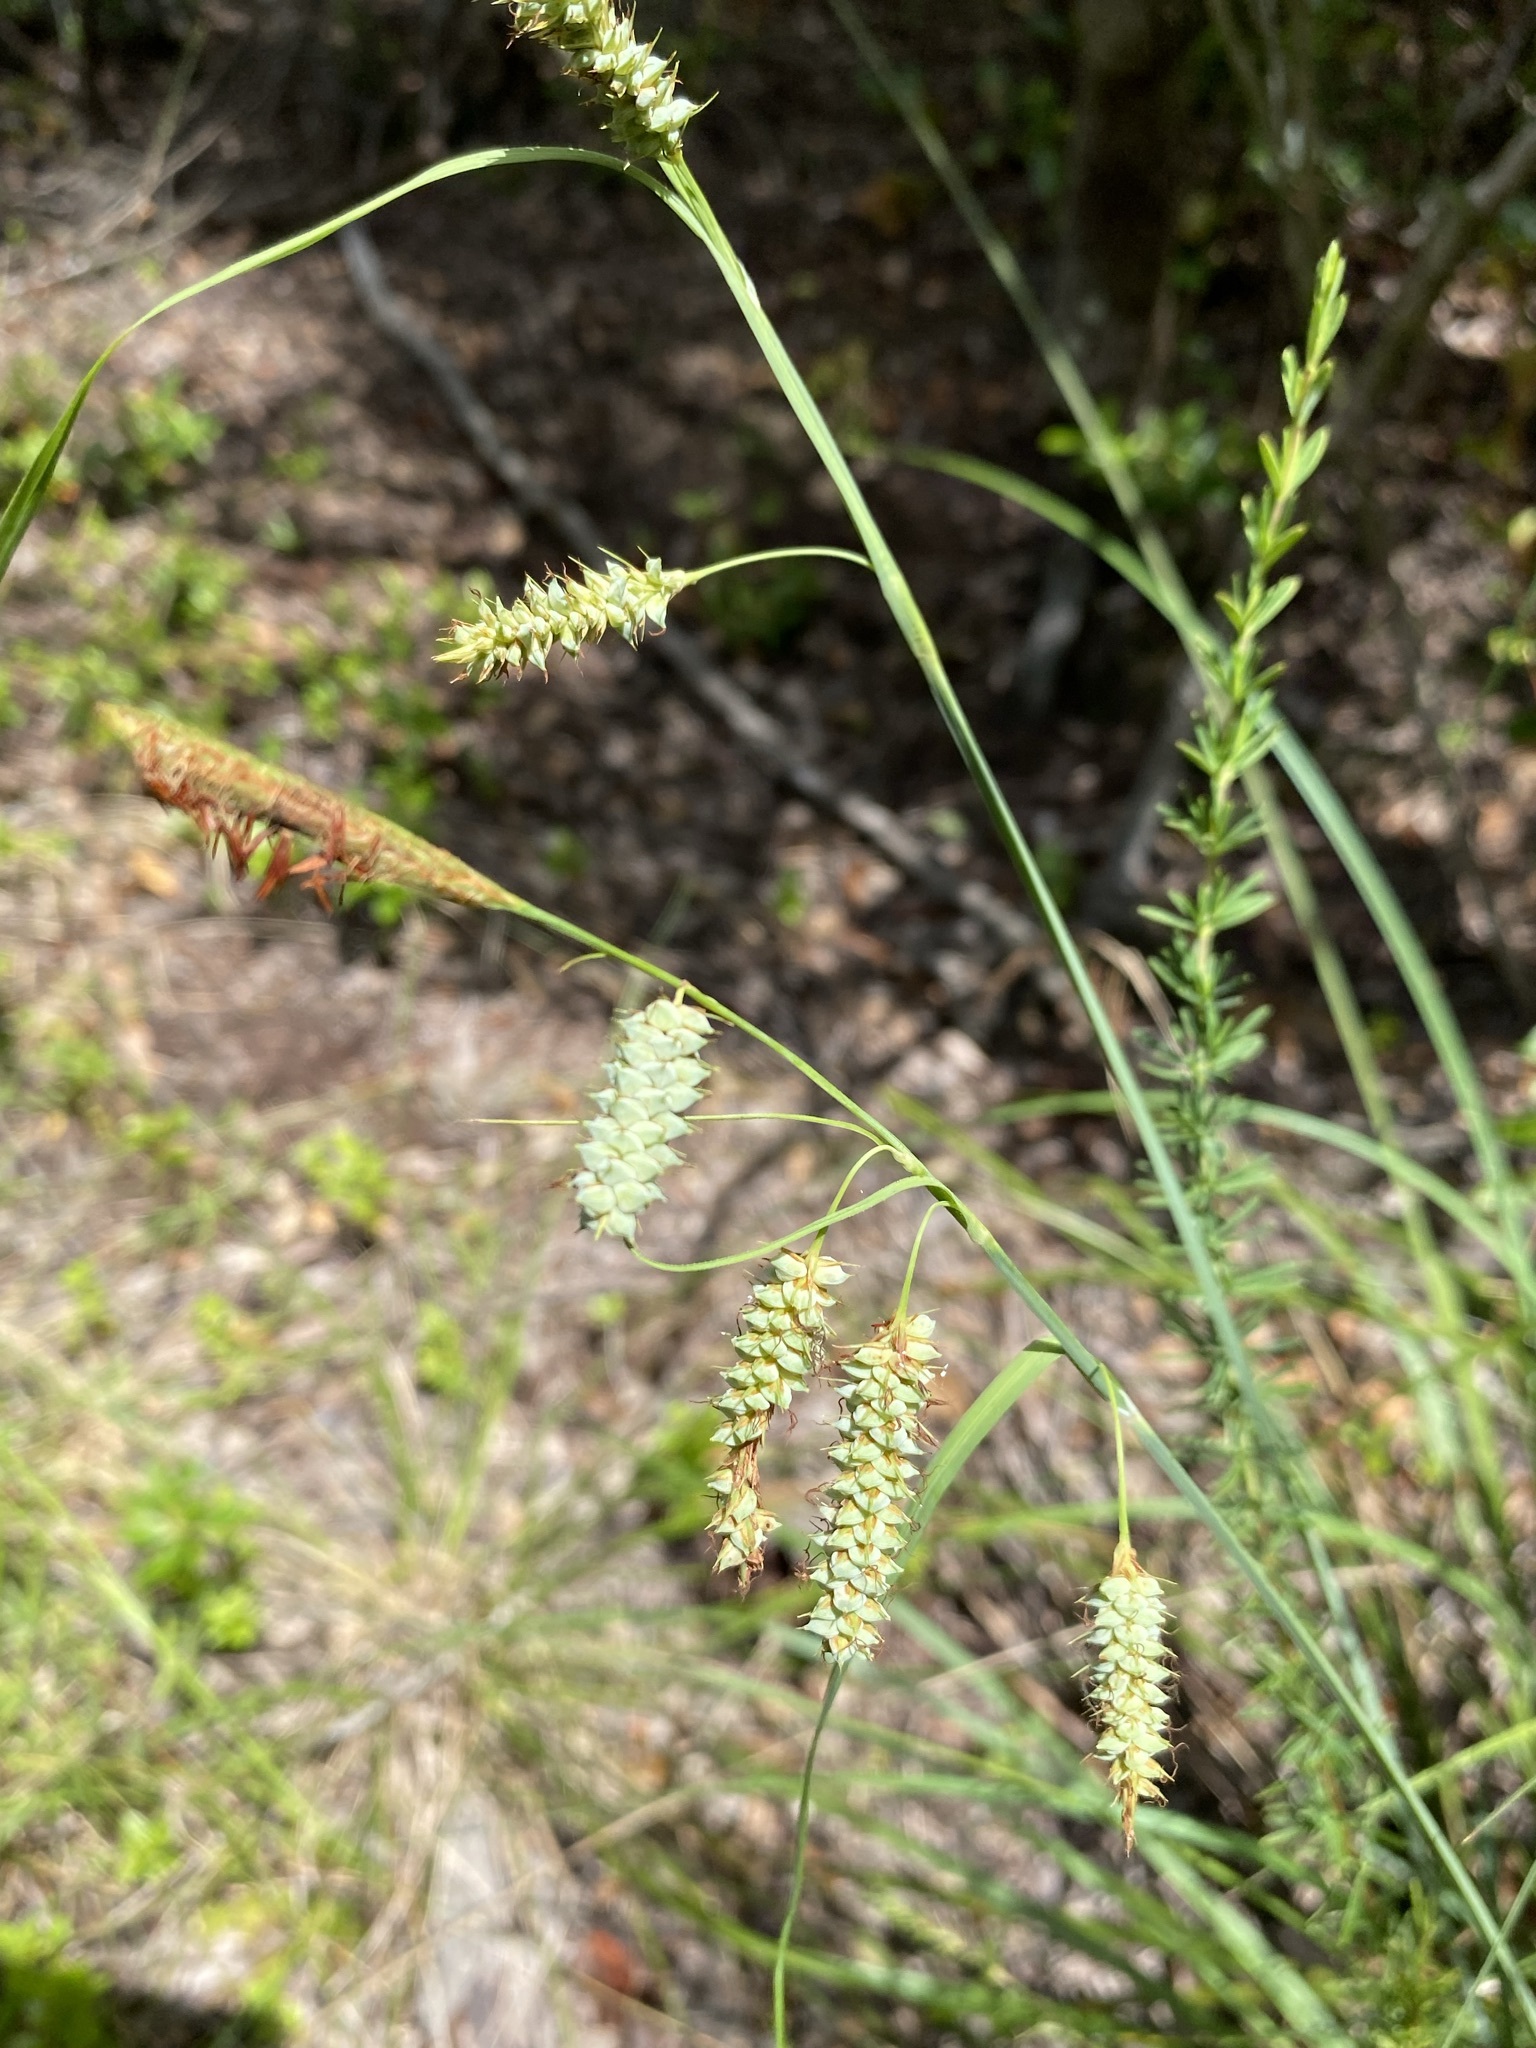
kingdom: Plantae
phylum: Tracheophyta
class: Liliopsida
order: Poales
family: Cyperaceae
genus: Carex
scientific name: Carex glaucescens
